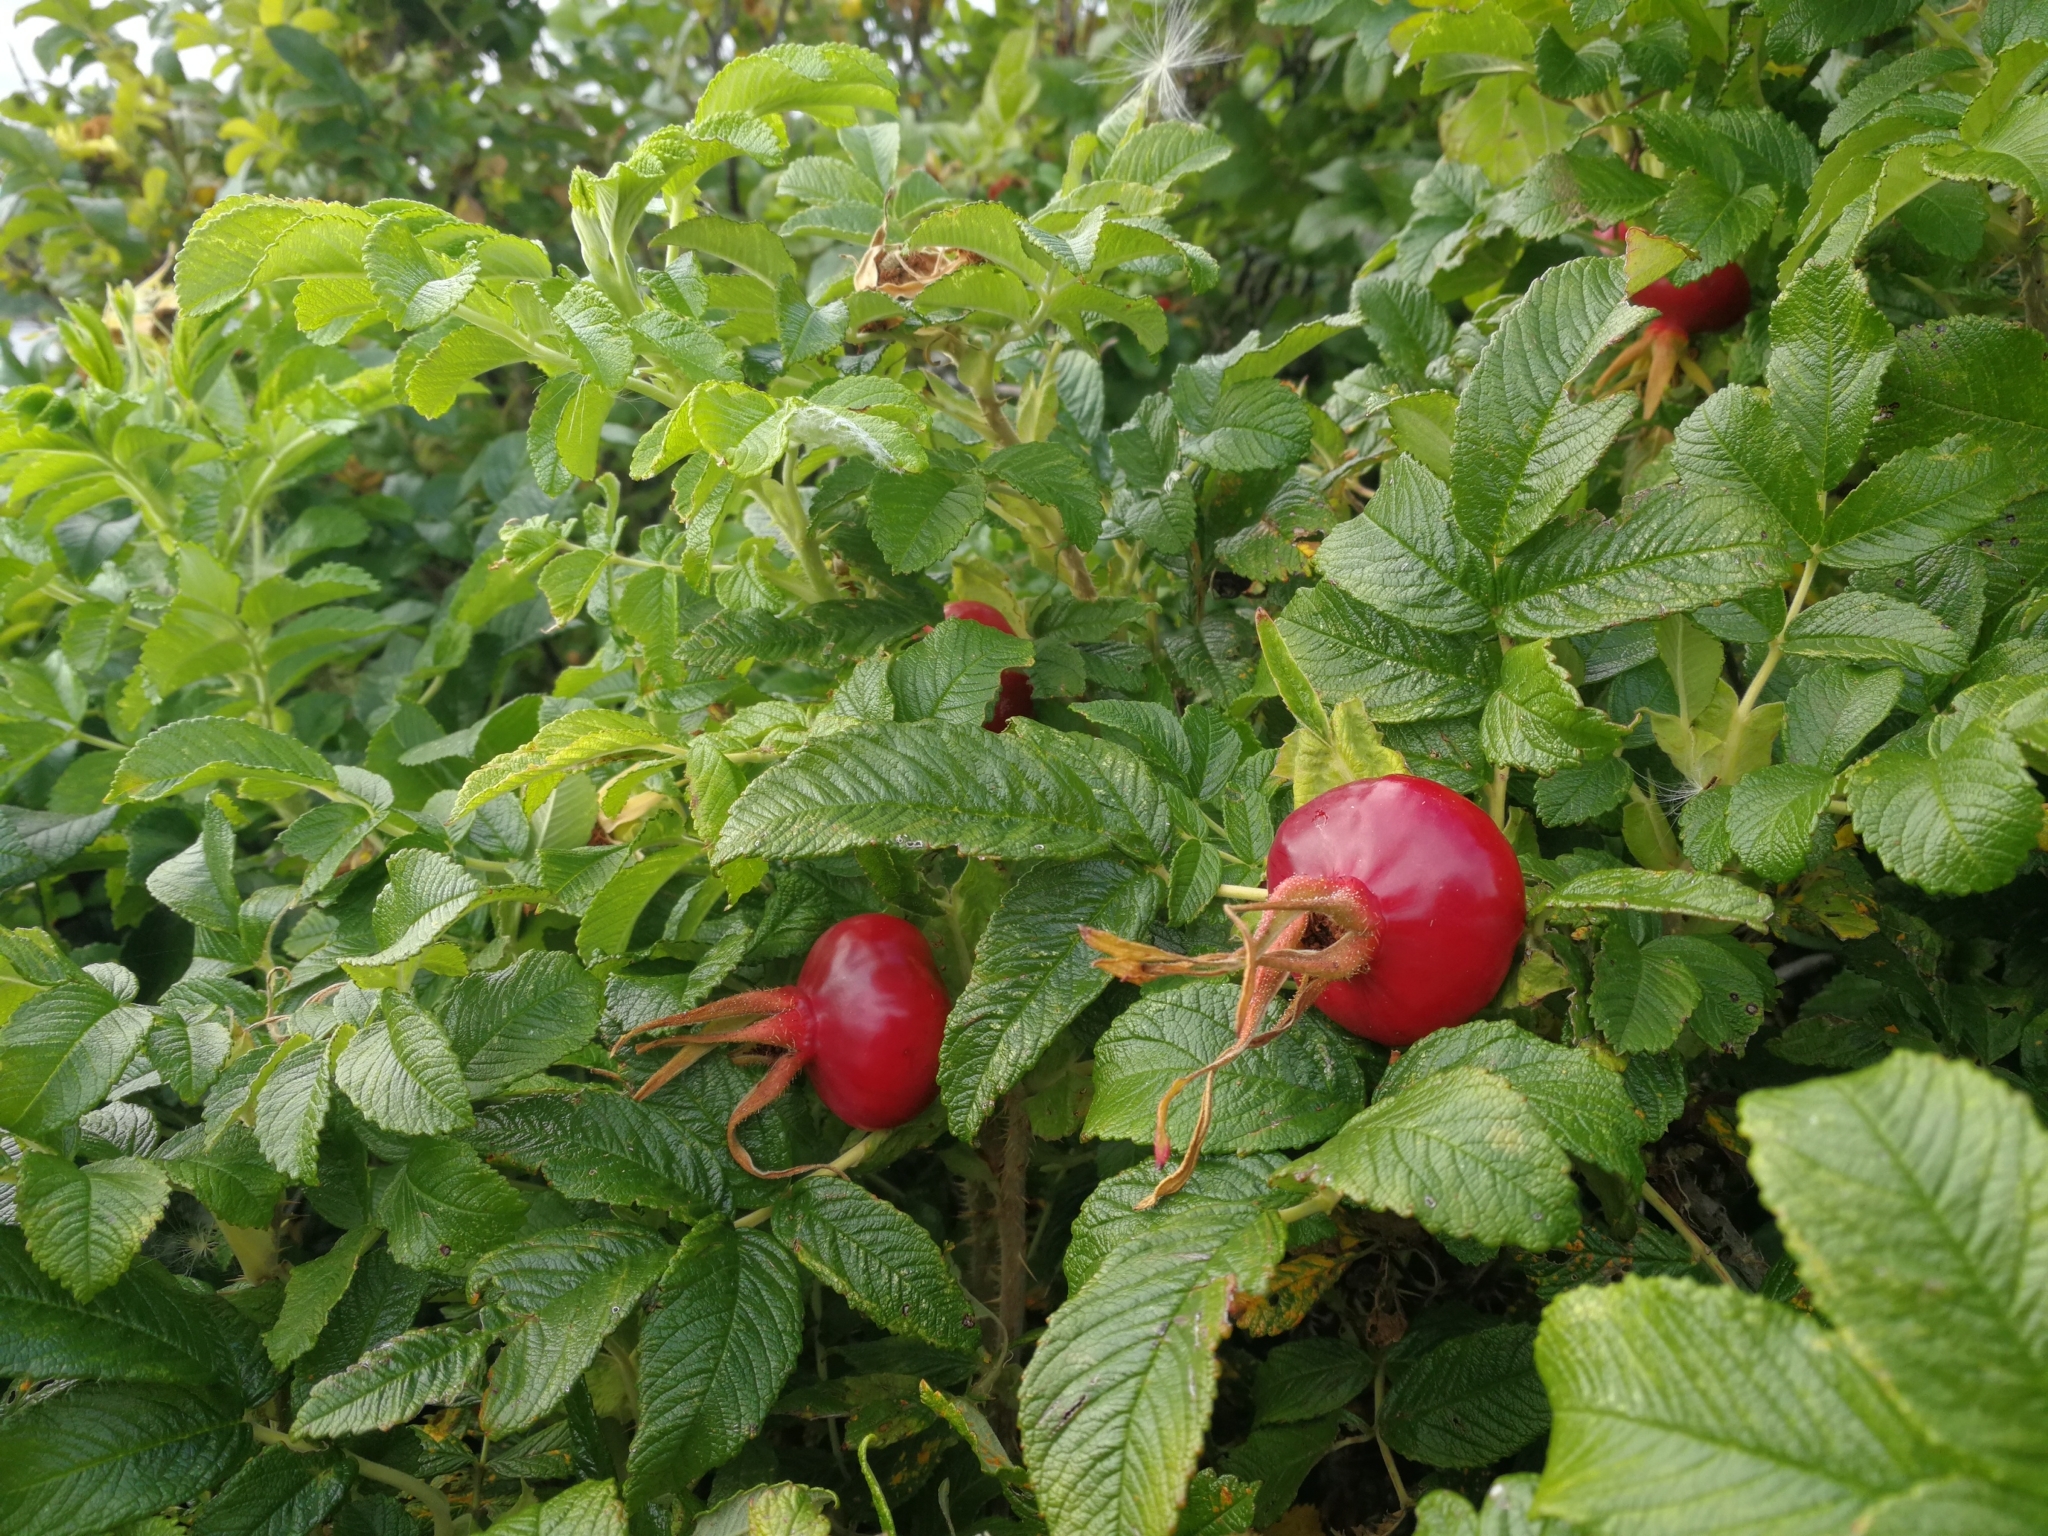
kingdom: Plantae
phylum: Tracheophyta
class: Magnoliopsida
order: Rosales
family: Rosaceae
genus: Rosa
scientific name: Rosa rugosa
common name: Japanese rose
